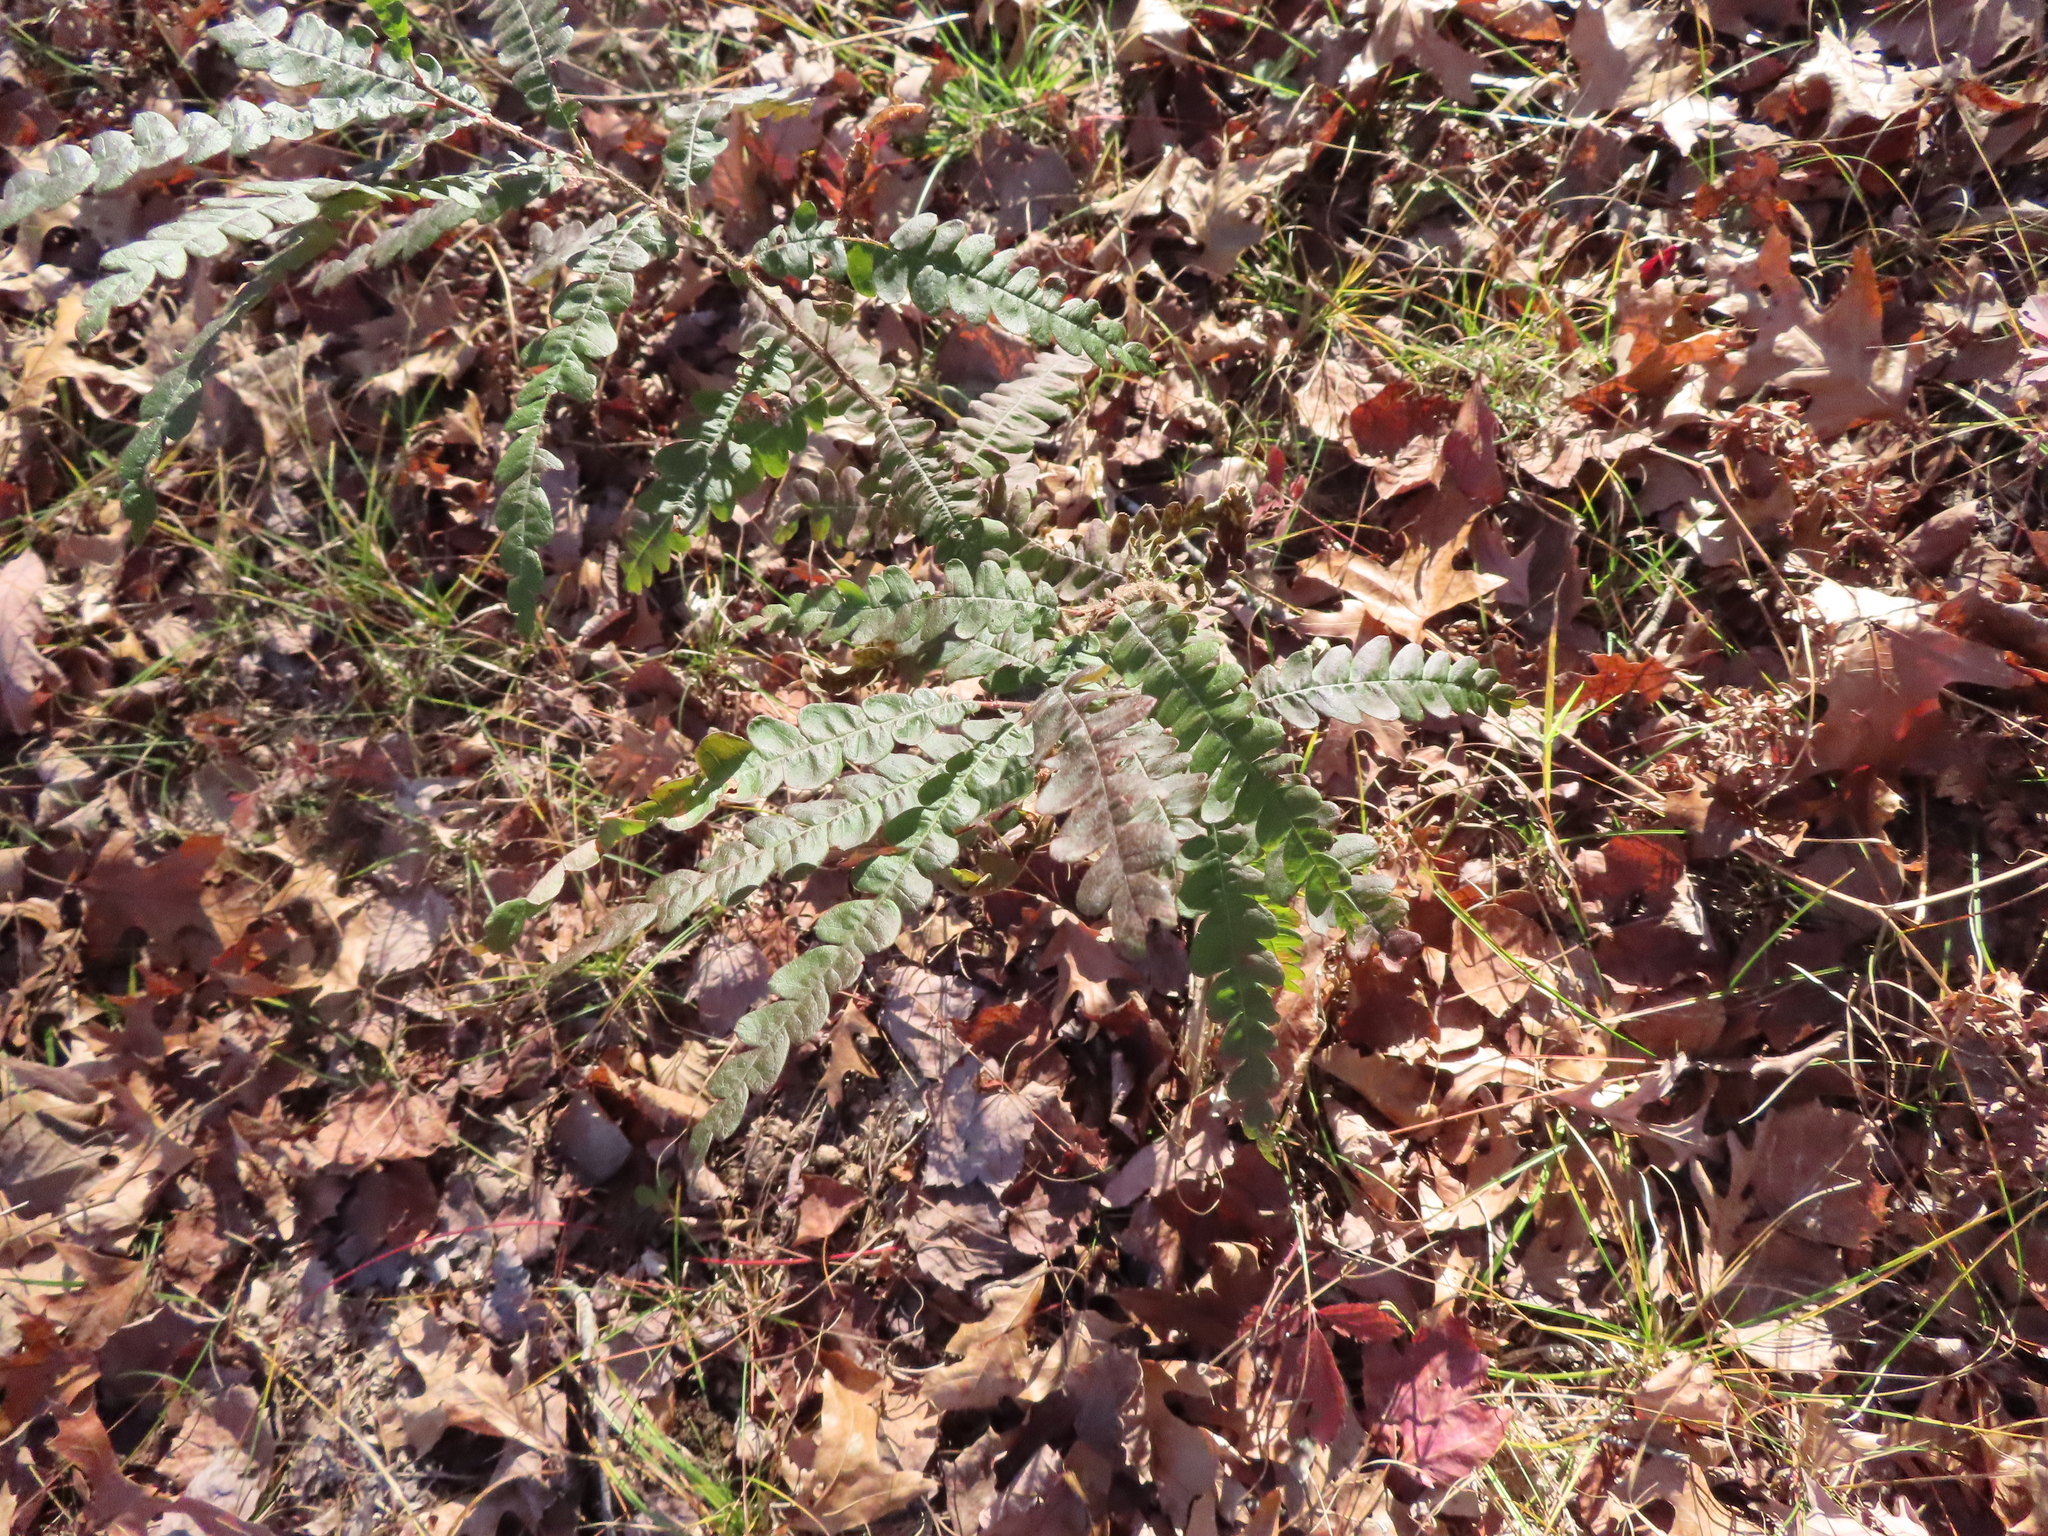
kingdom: Plantae
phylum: Tracheophyta
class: Magnoliopsida
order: Fagales
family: Myricaceae
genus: Comptonia
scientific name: Comptonia peregrina
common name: Sweet-fern
